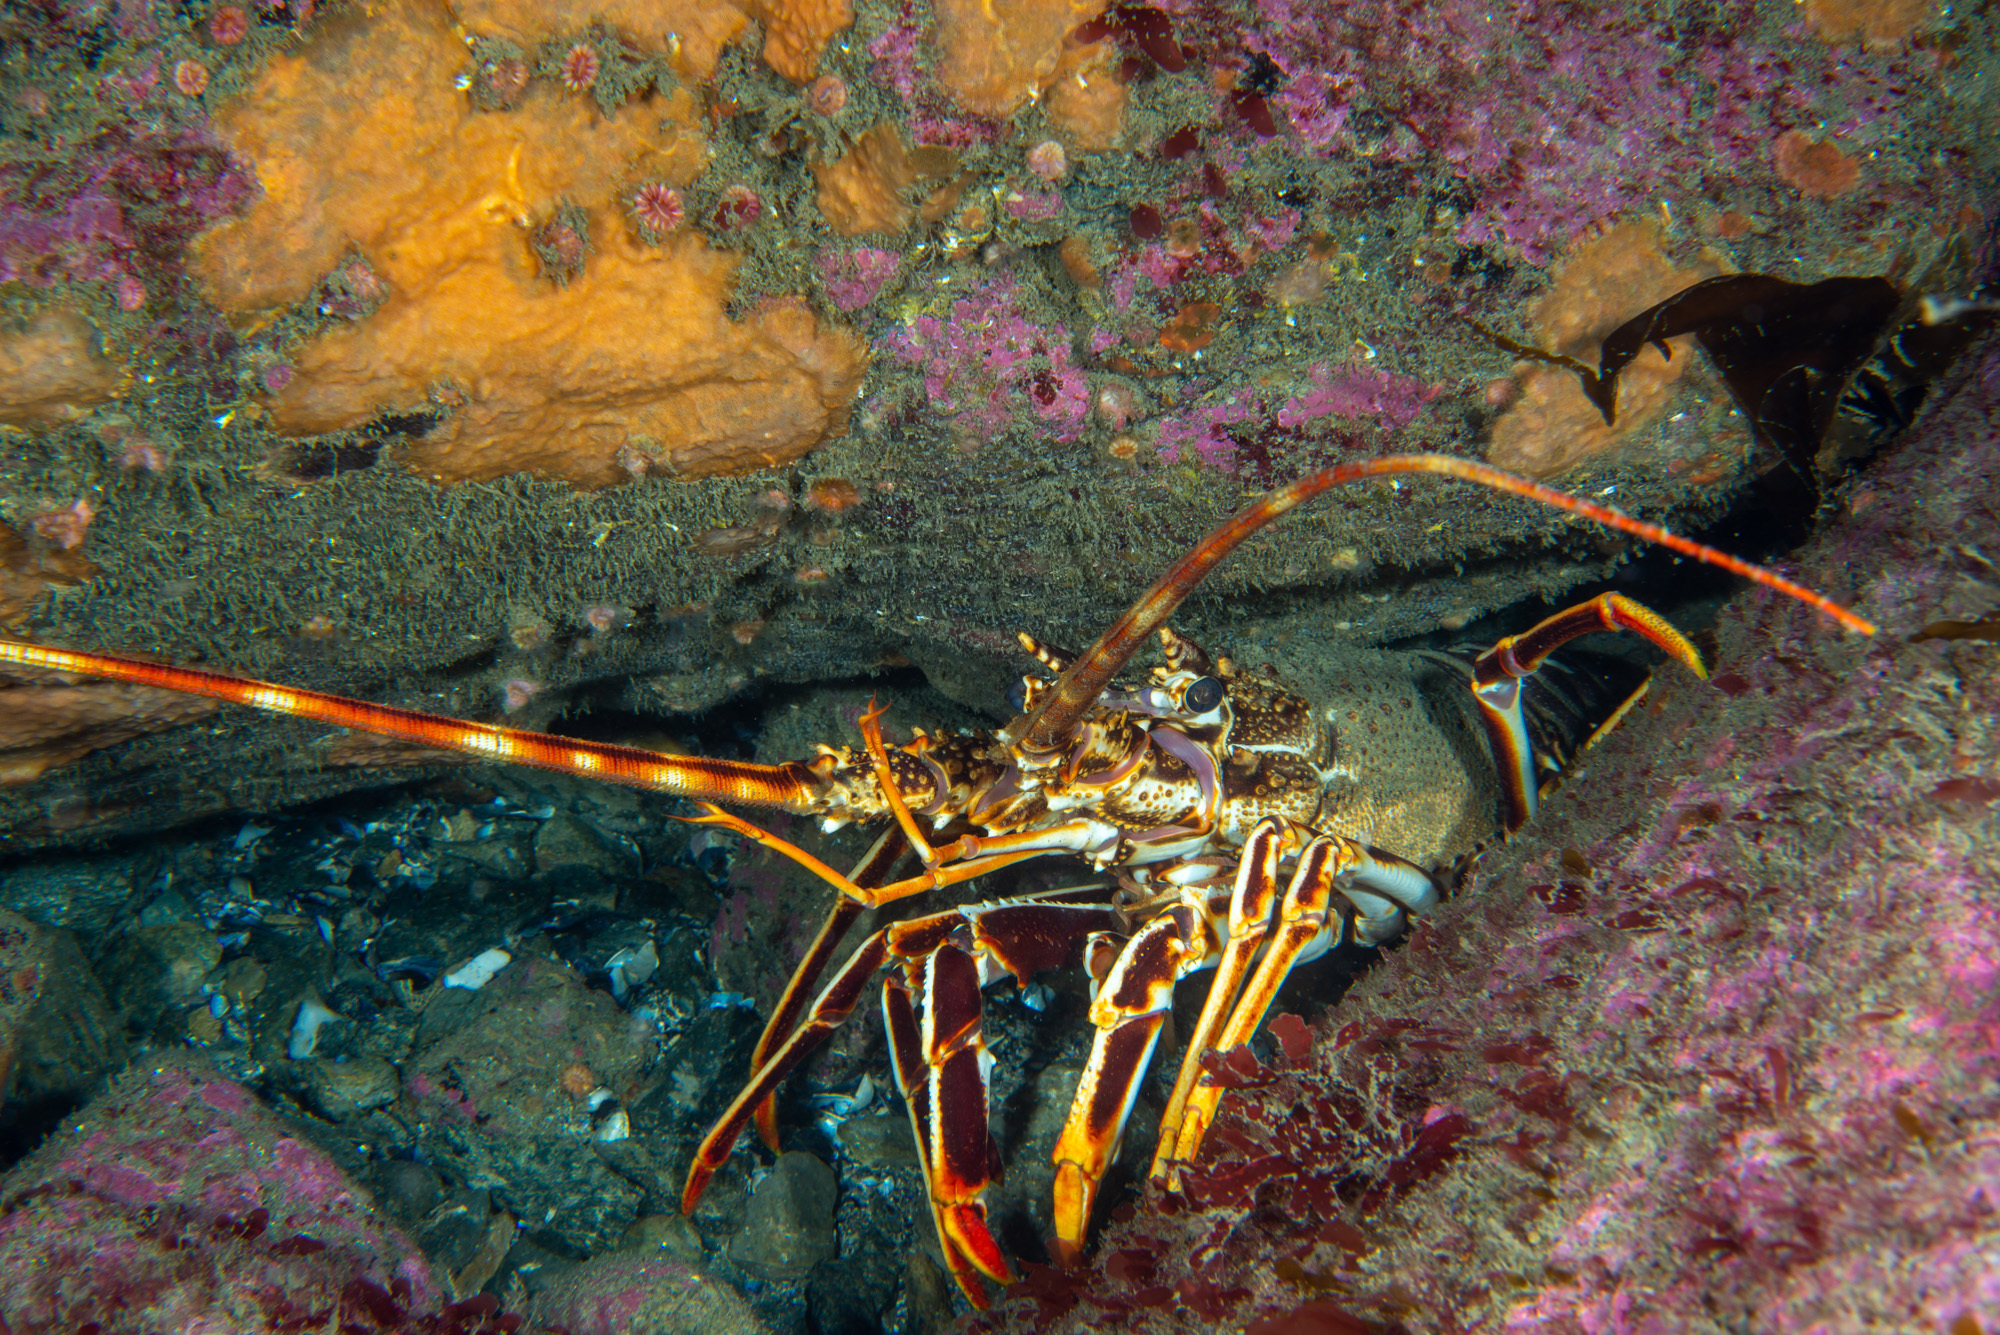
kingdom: Animalia
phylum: Arthropoda
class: Malacostraca
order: Decapoda
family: Palinuridae
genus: Palinurus
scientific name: Palinurus elephas
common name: European spiny lobster
